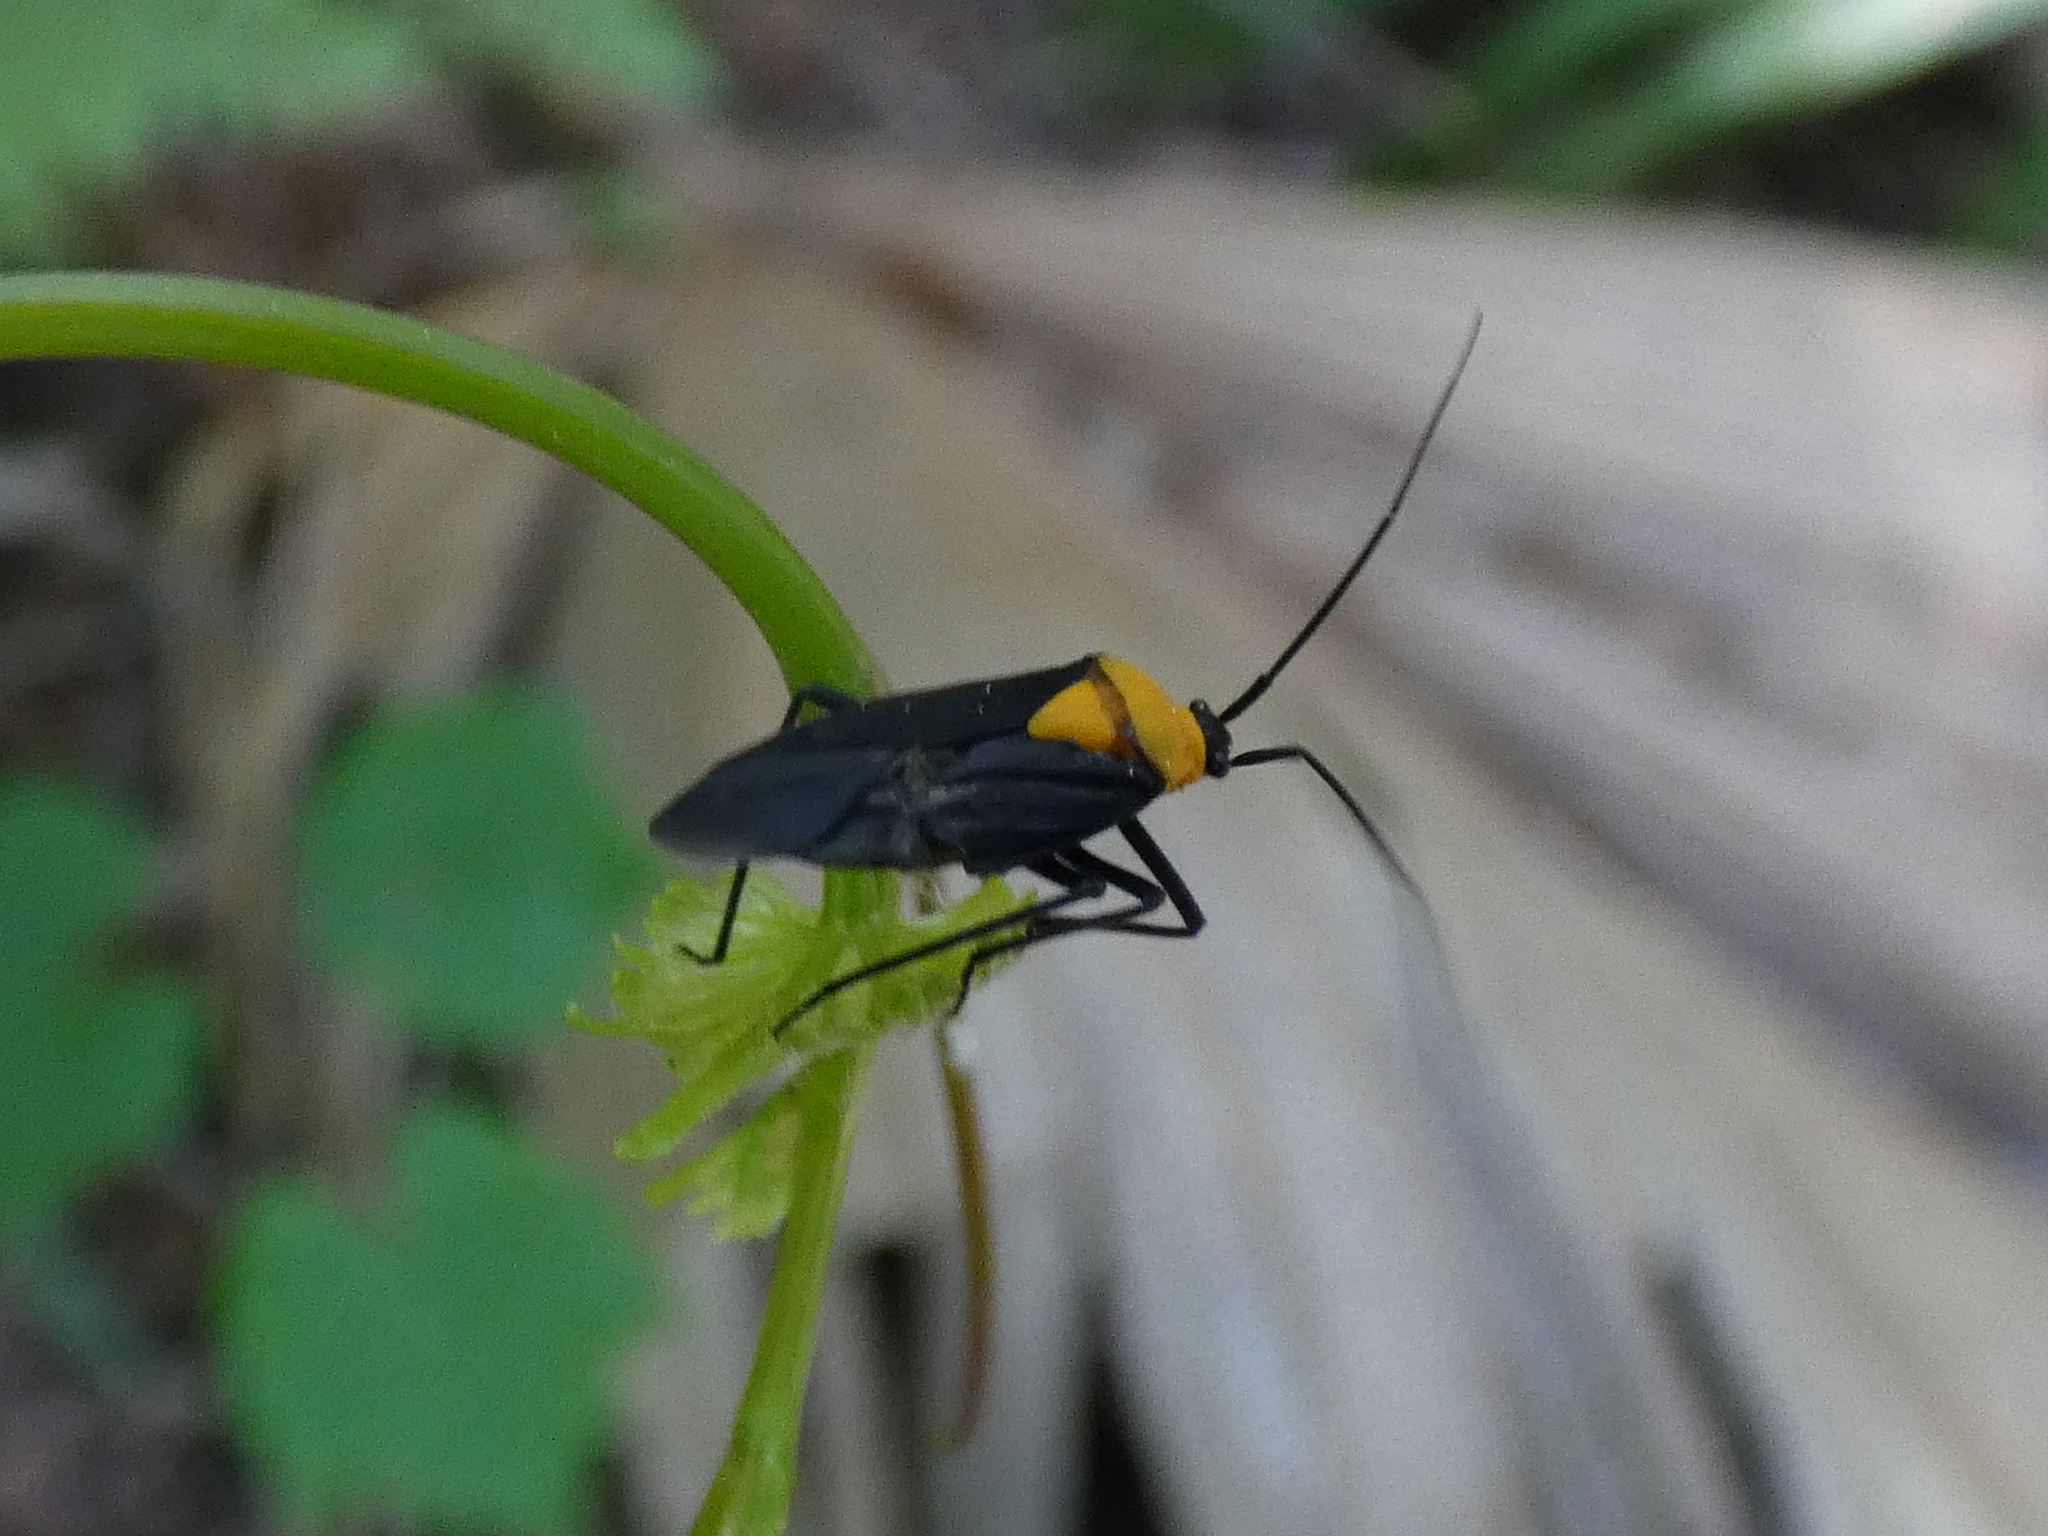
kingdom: Animalia
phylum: Arthropoda
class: Insecta
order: Hemiptera
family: Miridae
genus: Prepops
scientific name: Prepops insitivus
